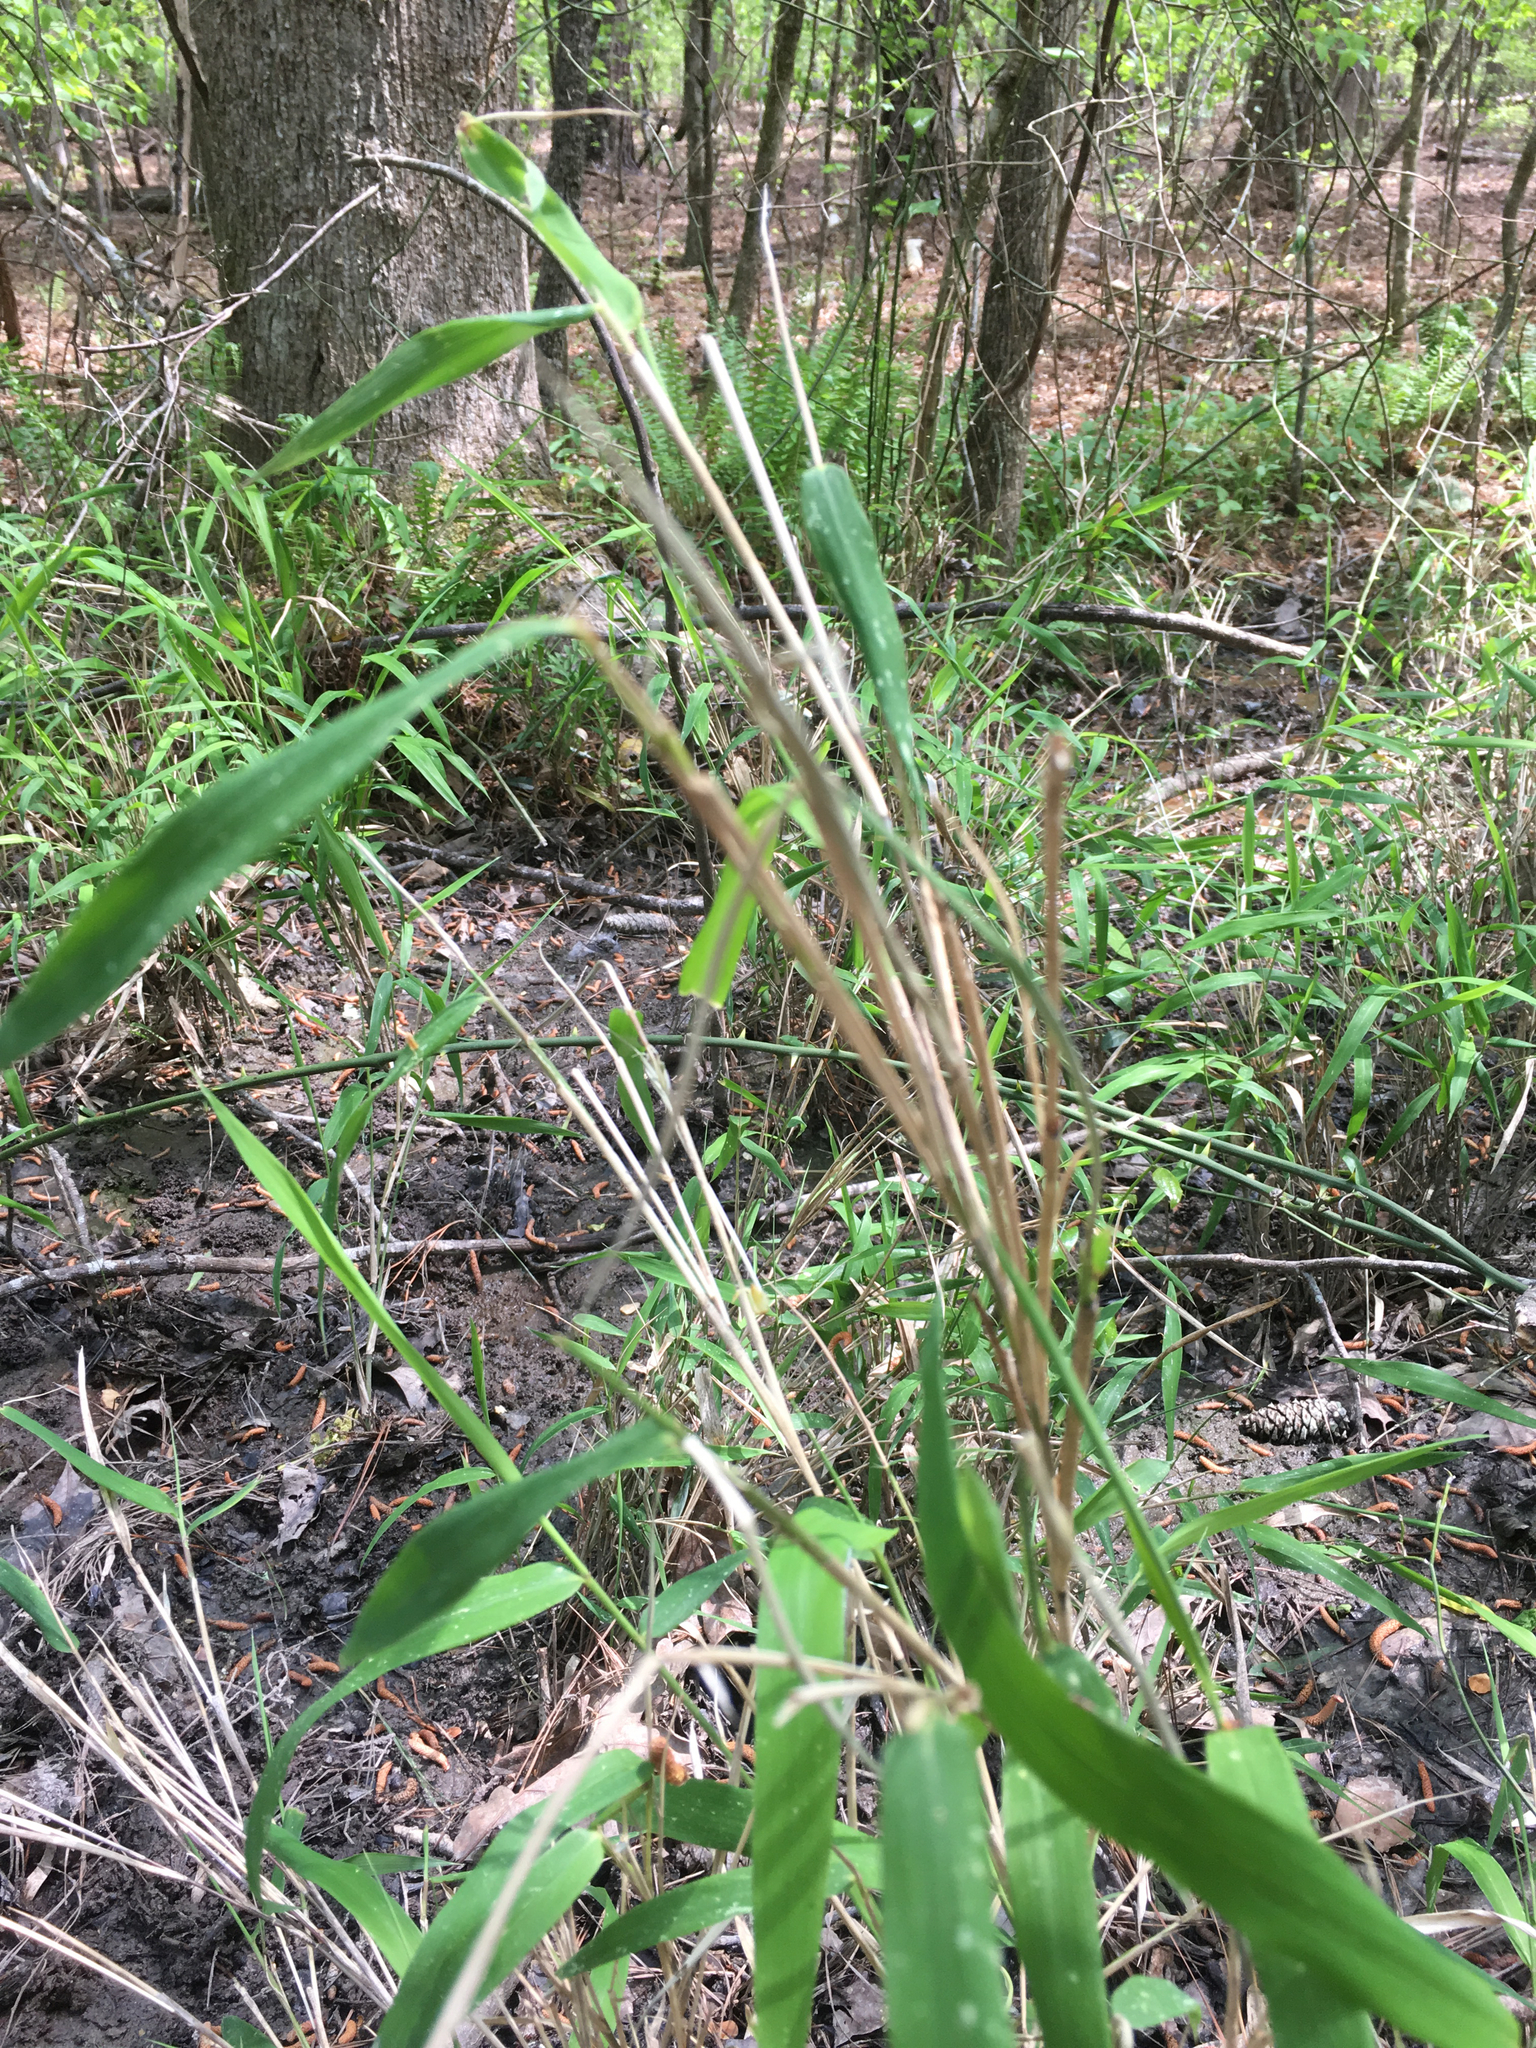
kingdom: Plantae
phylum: Tracheophyta
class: Liliopsida
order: Poales
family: Poaceae
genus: Arundinaria
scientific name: Arundinaria tecta
